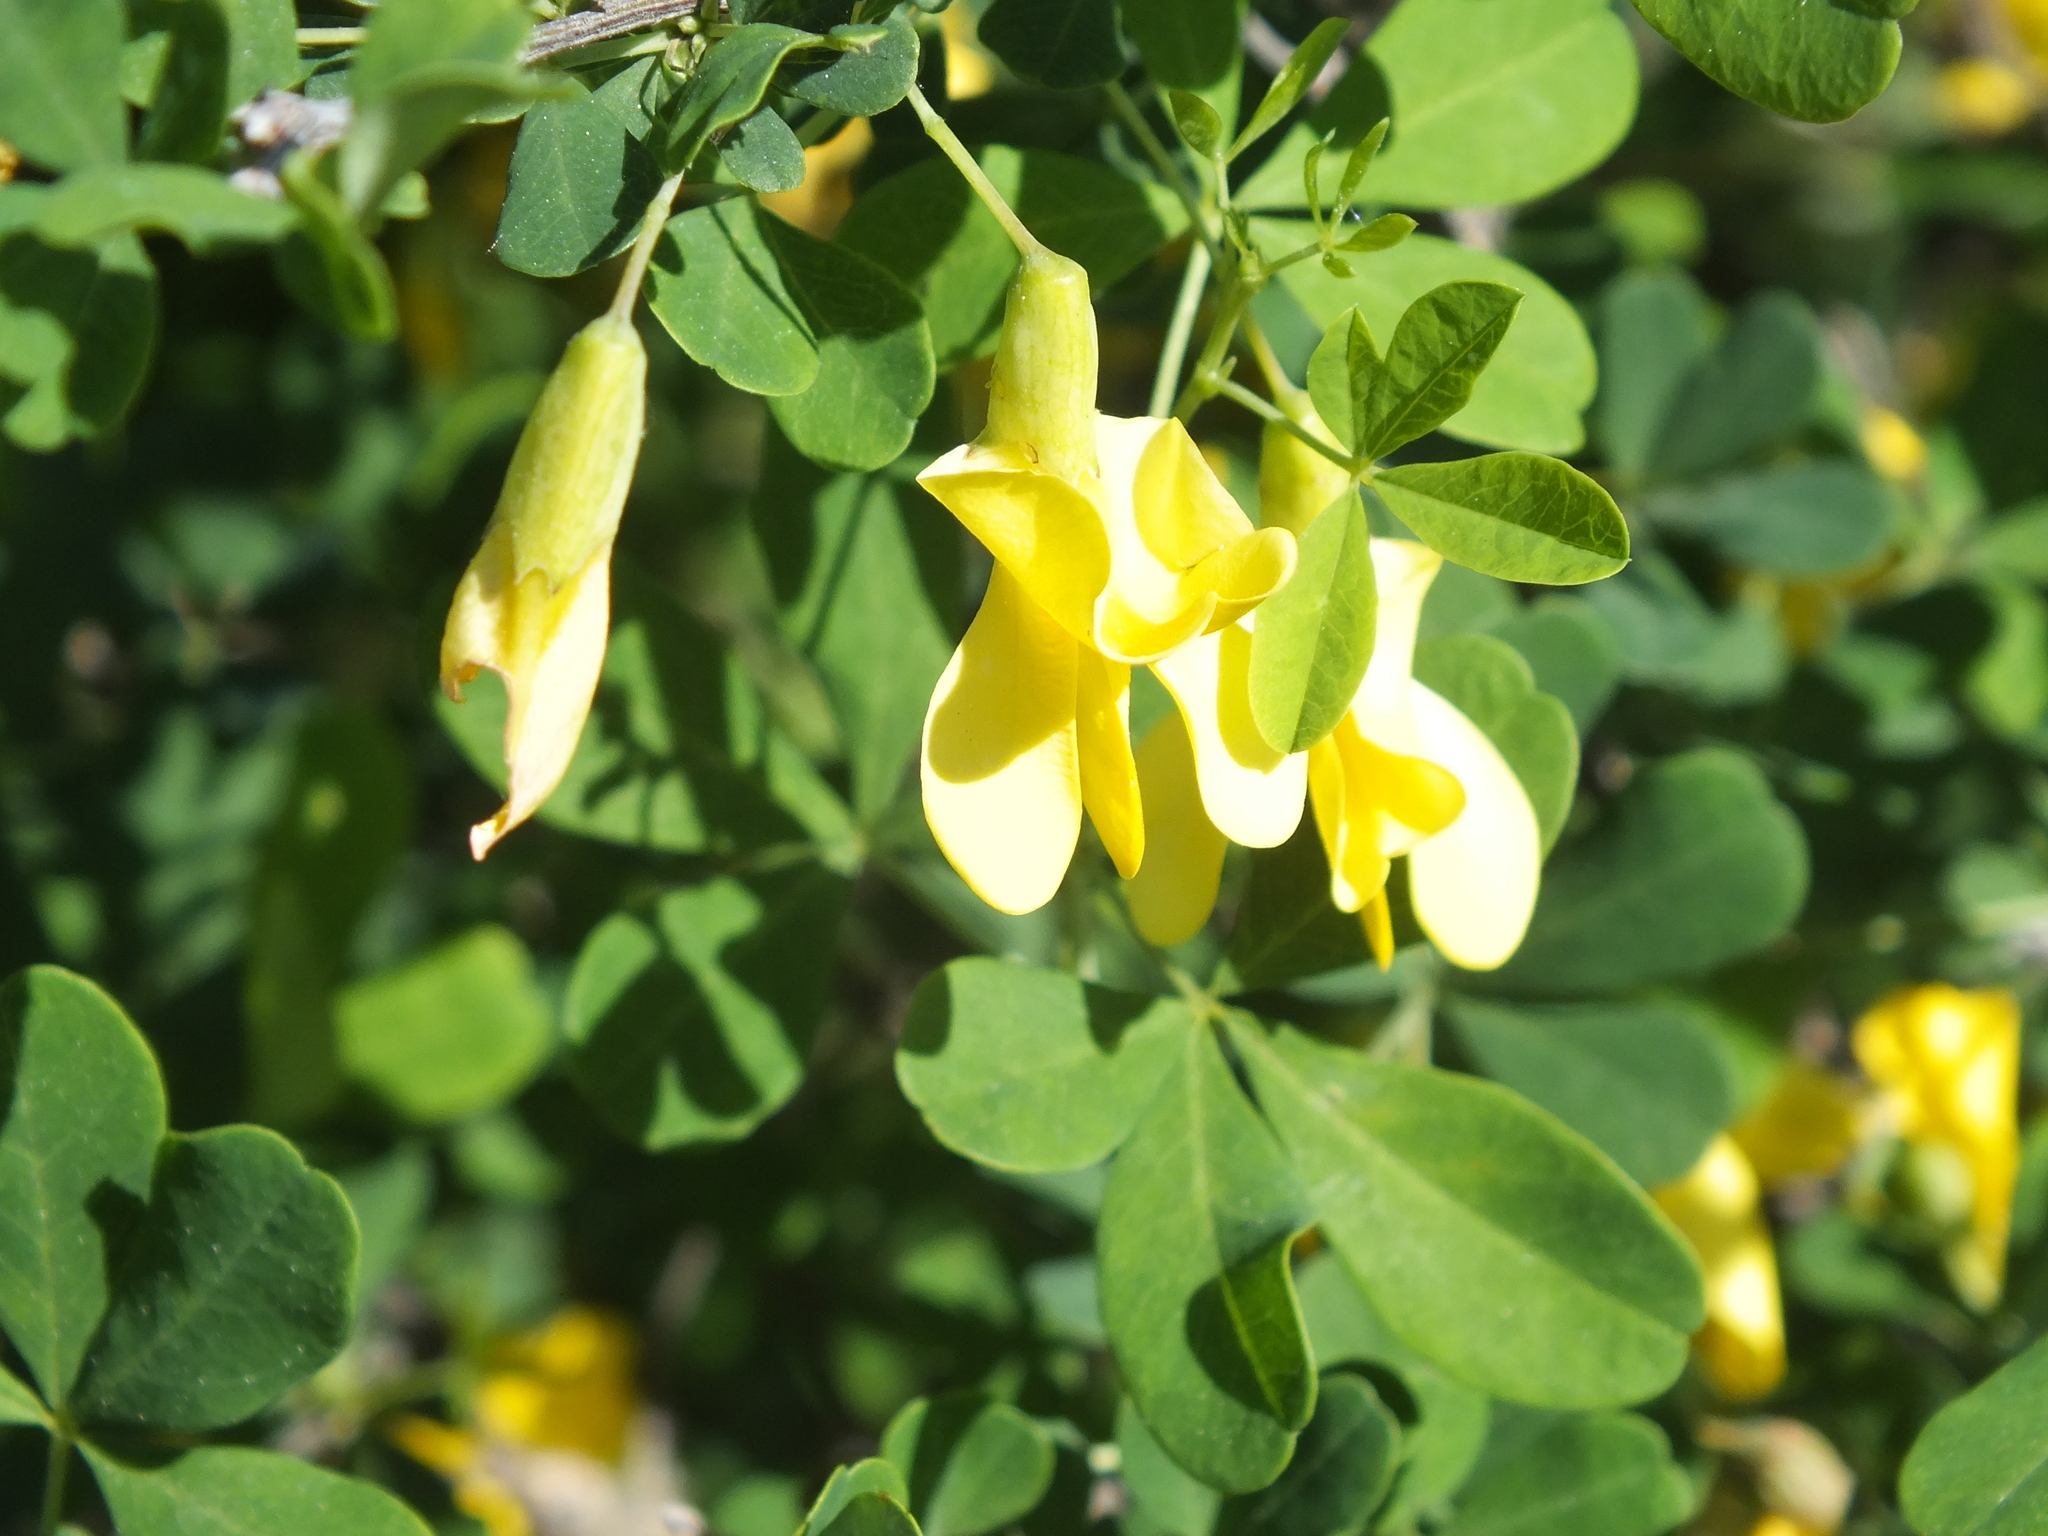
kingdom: Plantae
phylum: Tracheophyta
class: Magnoliopsida
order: Fabales
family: Fabaceae
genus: Caragana
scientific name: Caragana arborescens
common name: Siberian peashrub
